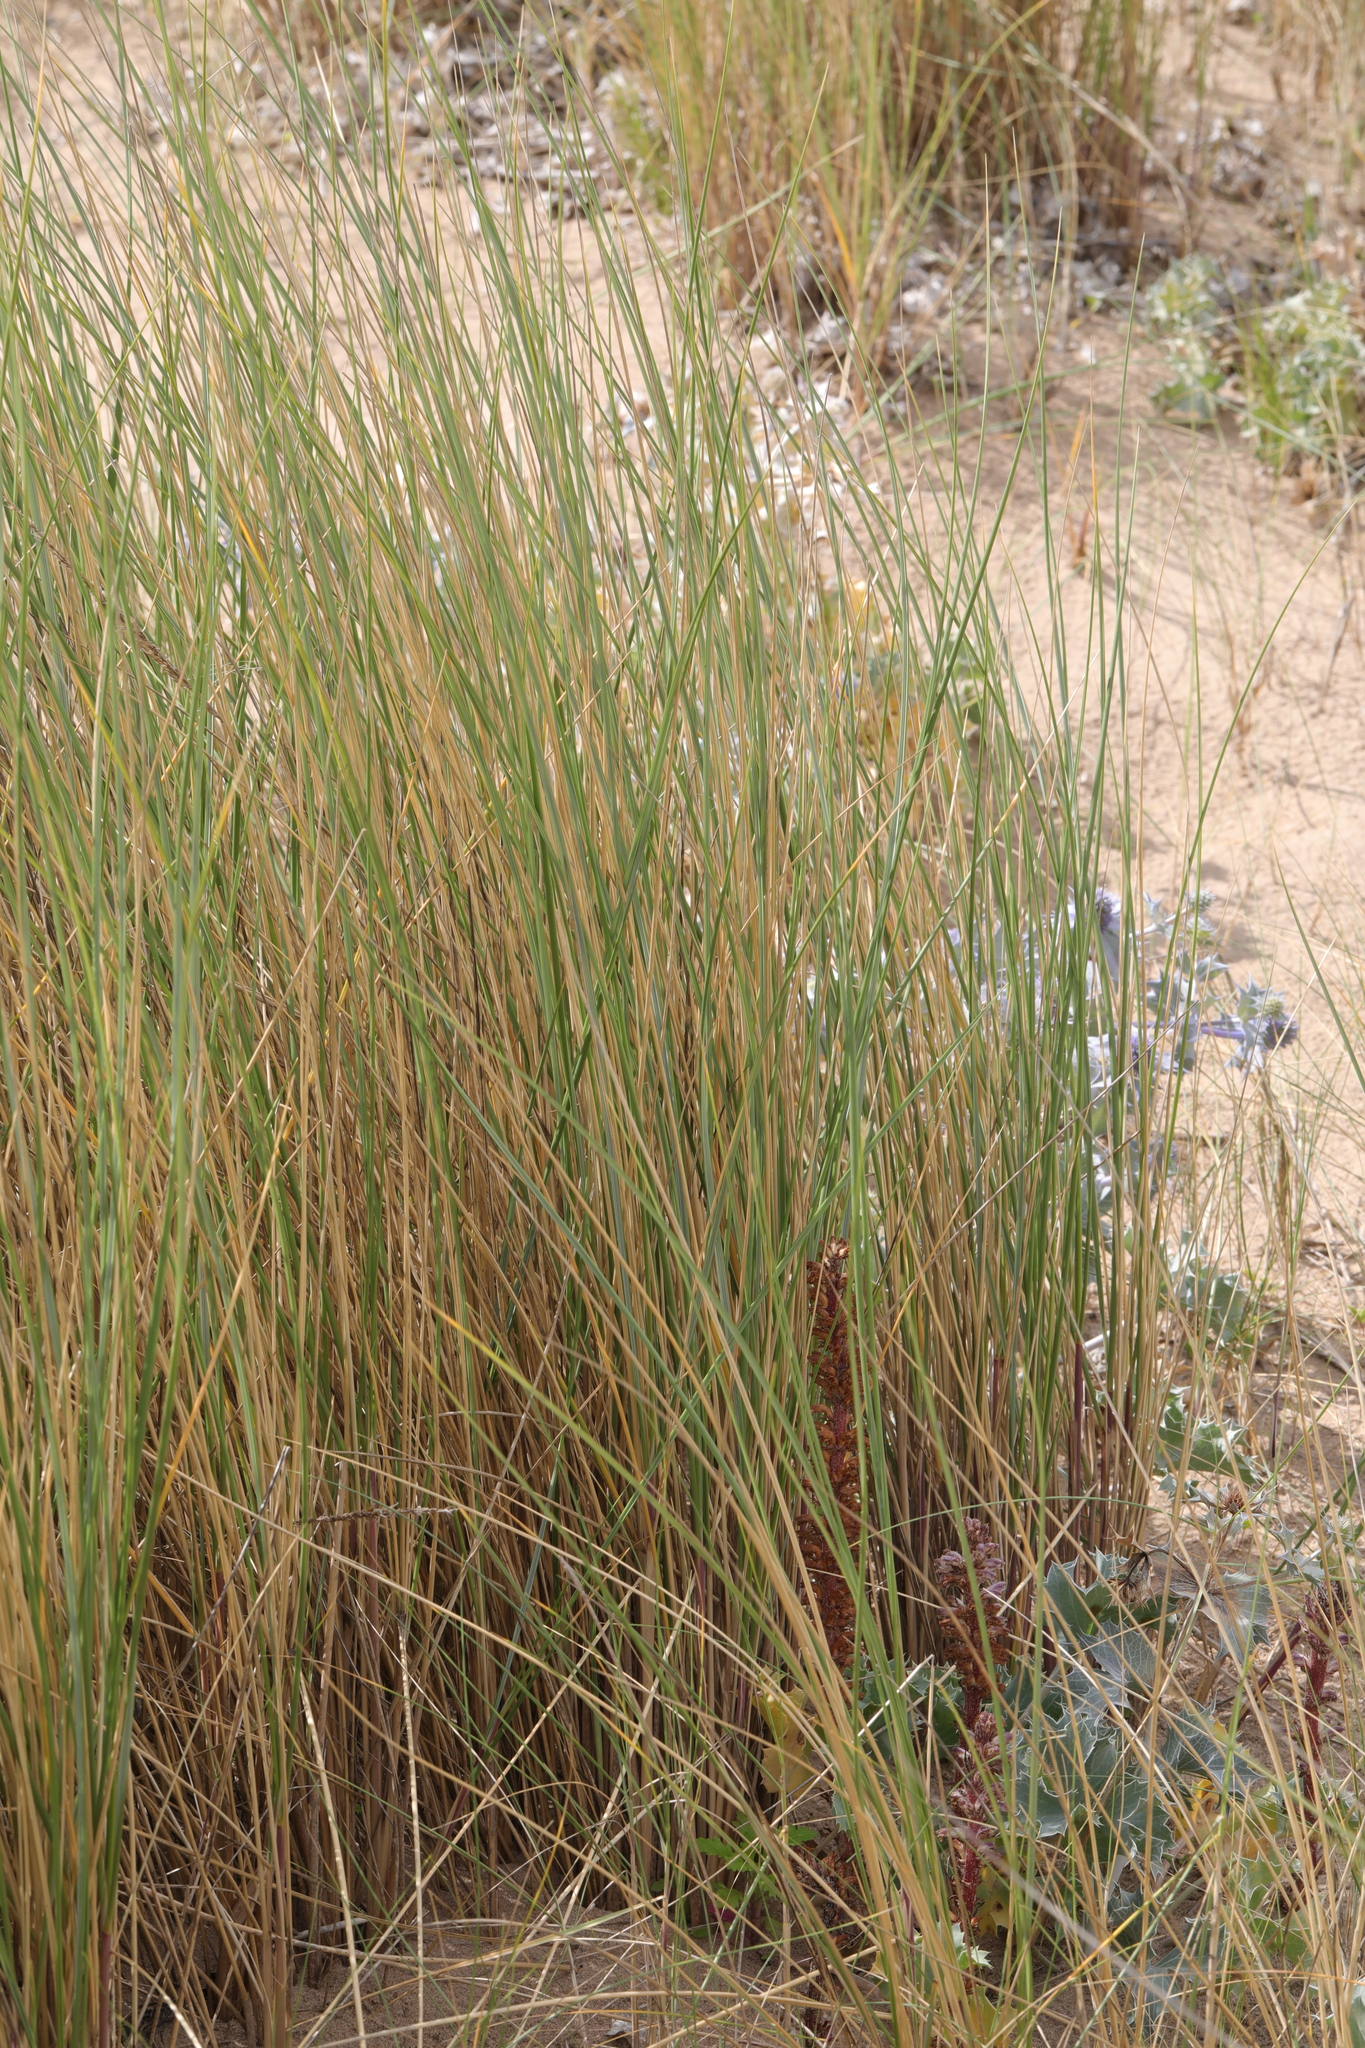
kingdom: Plantae
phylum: Tracheophyta
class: Liliopsida
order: Poales
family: Poaceae
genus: Calamagrostis
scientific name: Calamagrostis arenaria
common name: European beachgrass
